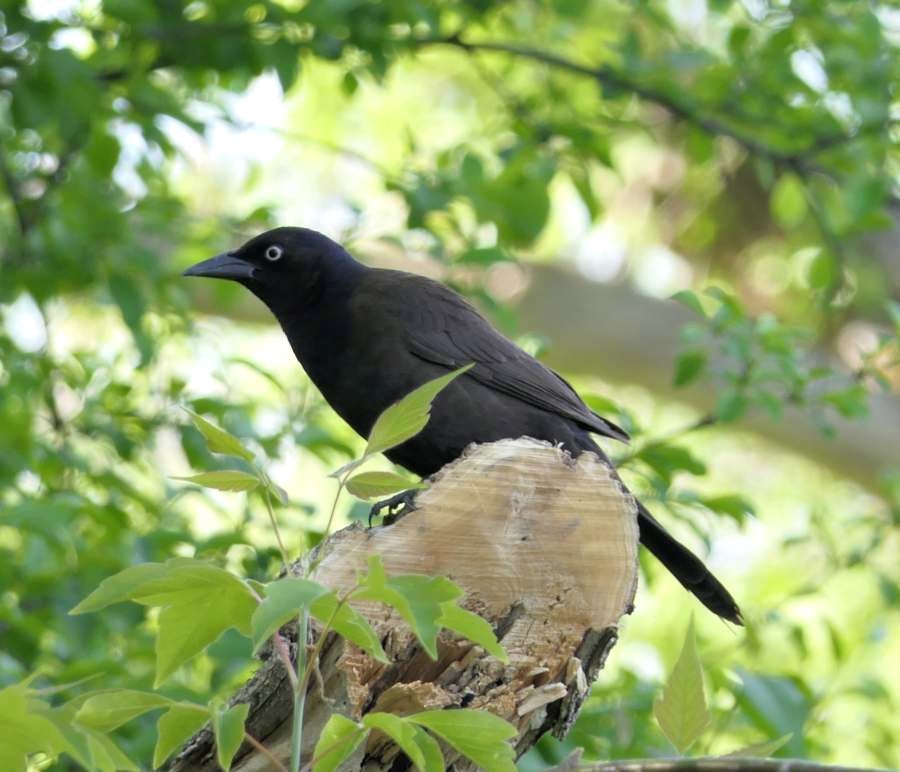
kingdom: Animalia
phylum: Chordata
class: Aves
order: Passeriformes
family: Icteridae
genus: Quiscalus
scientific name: Quiscalus quiscula
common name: Common grackle
